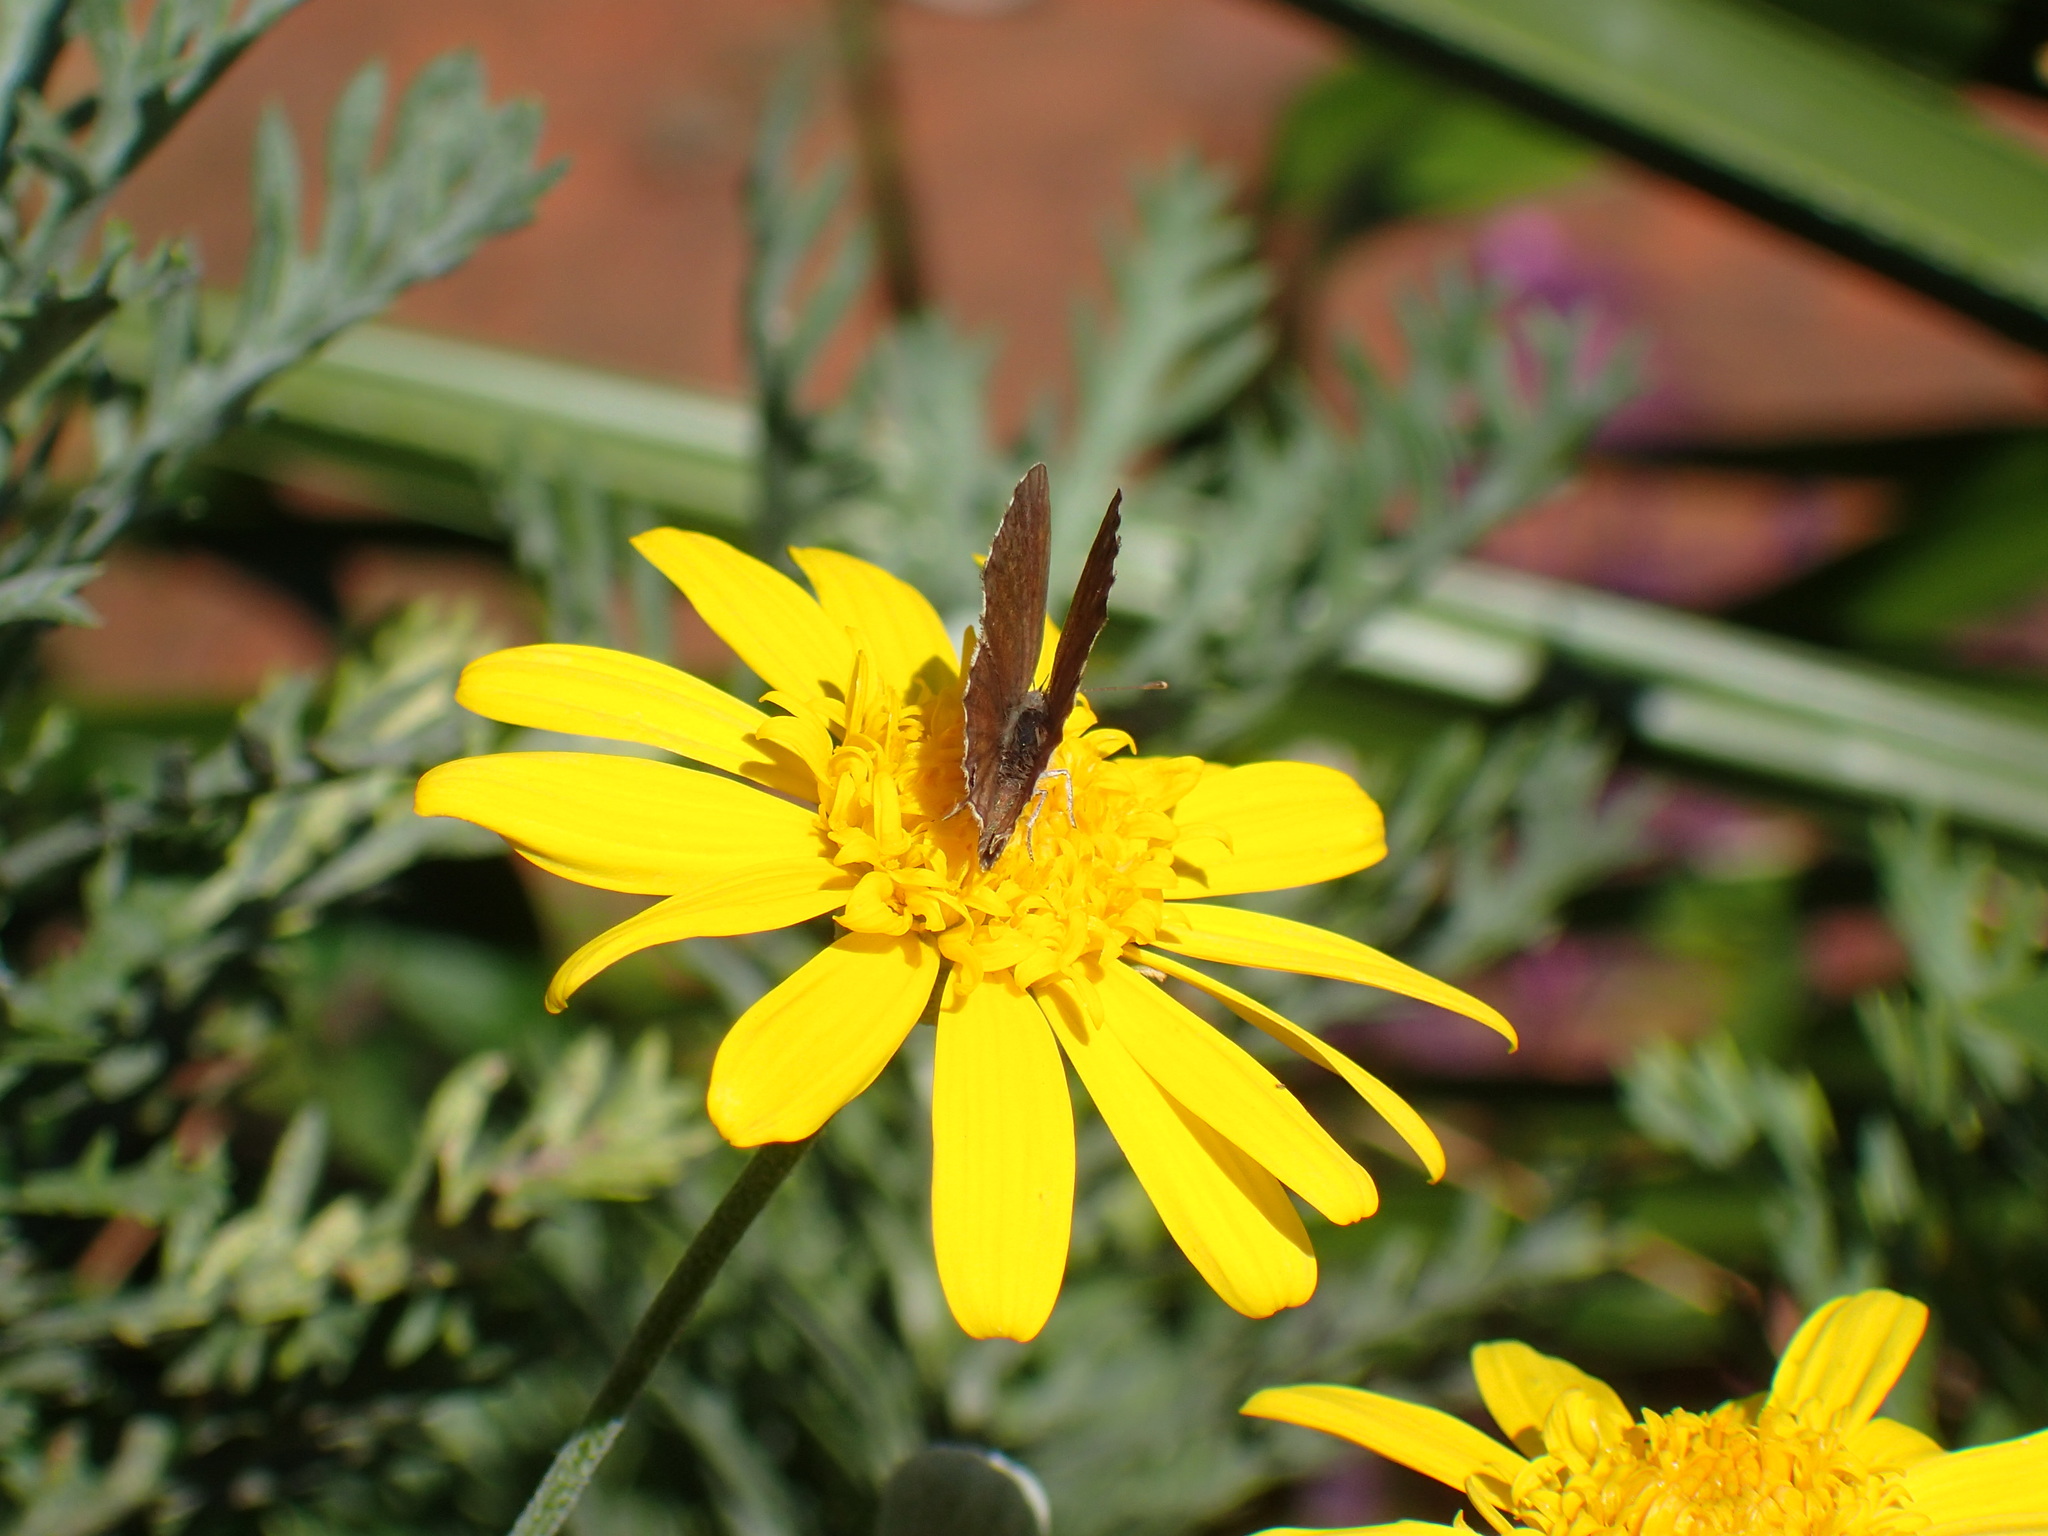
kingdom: Animalia
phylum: Arthropoda
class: Insecta
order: Lepidoptera
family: Lycaenidae
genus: Cacyreus
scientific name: Cacyreus marshalli
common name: Geranium bronze
